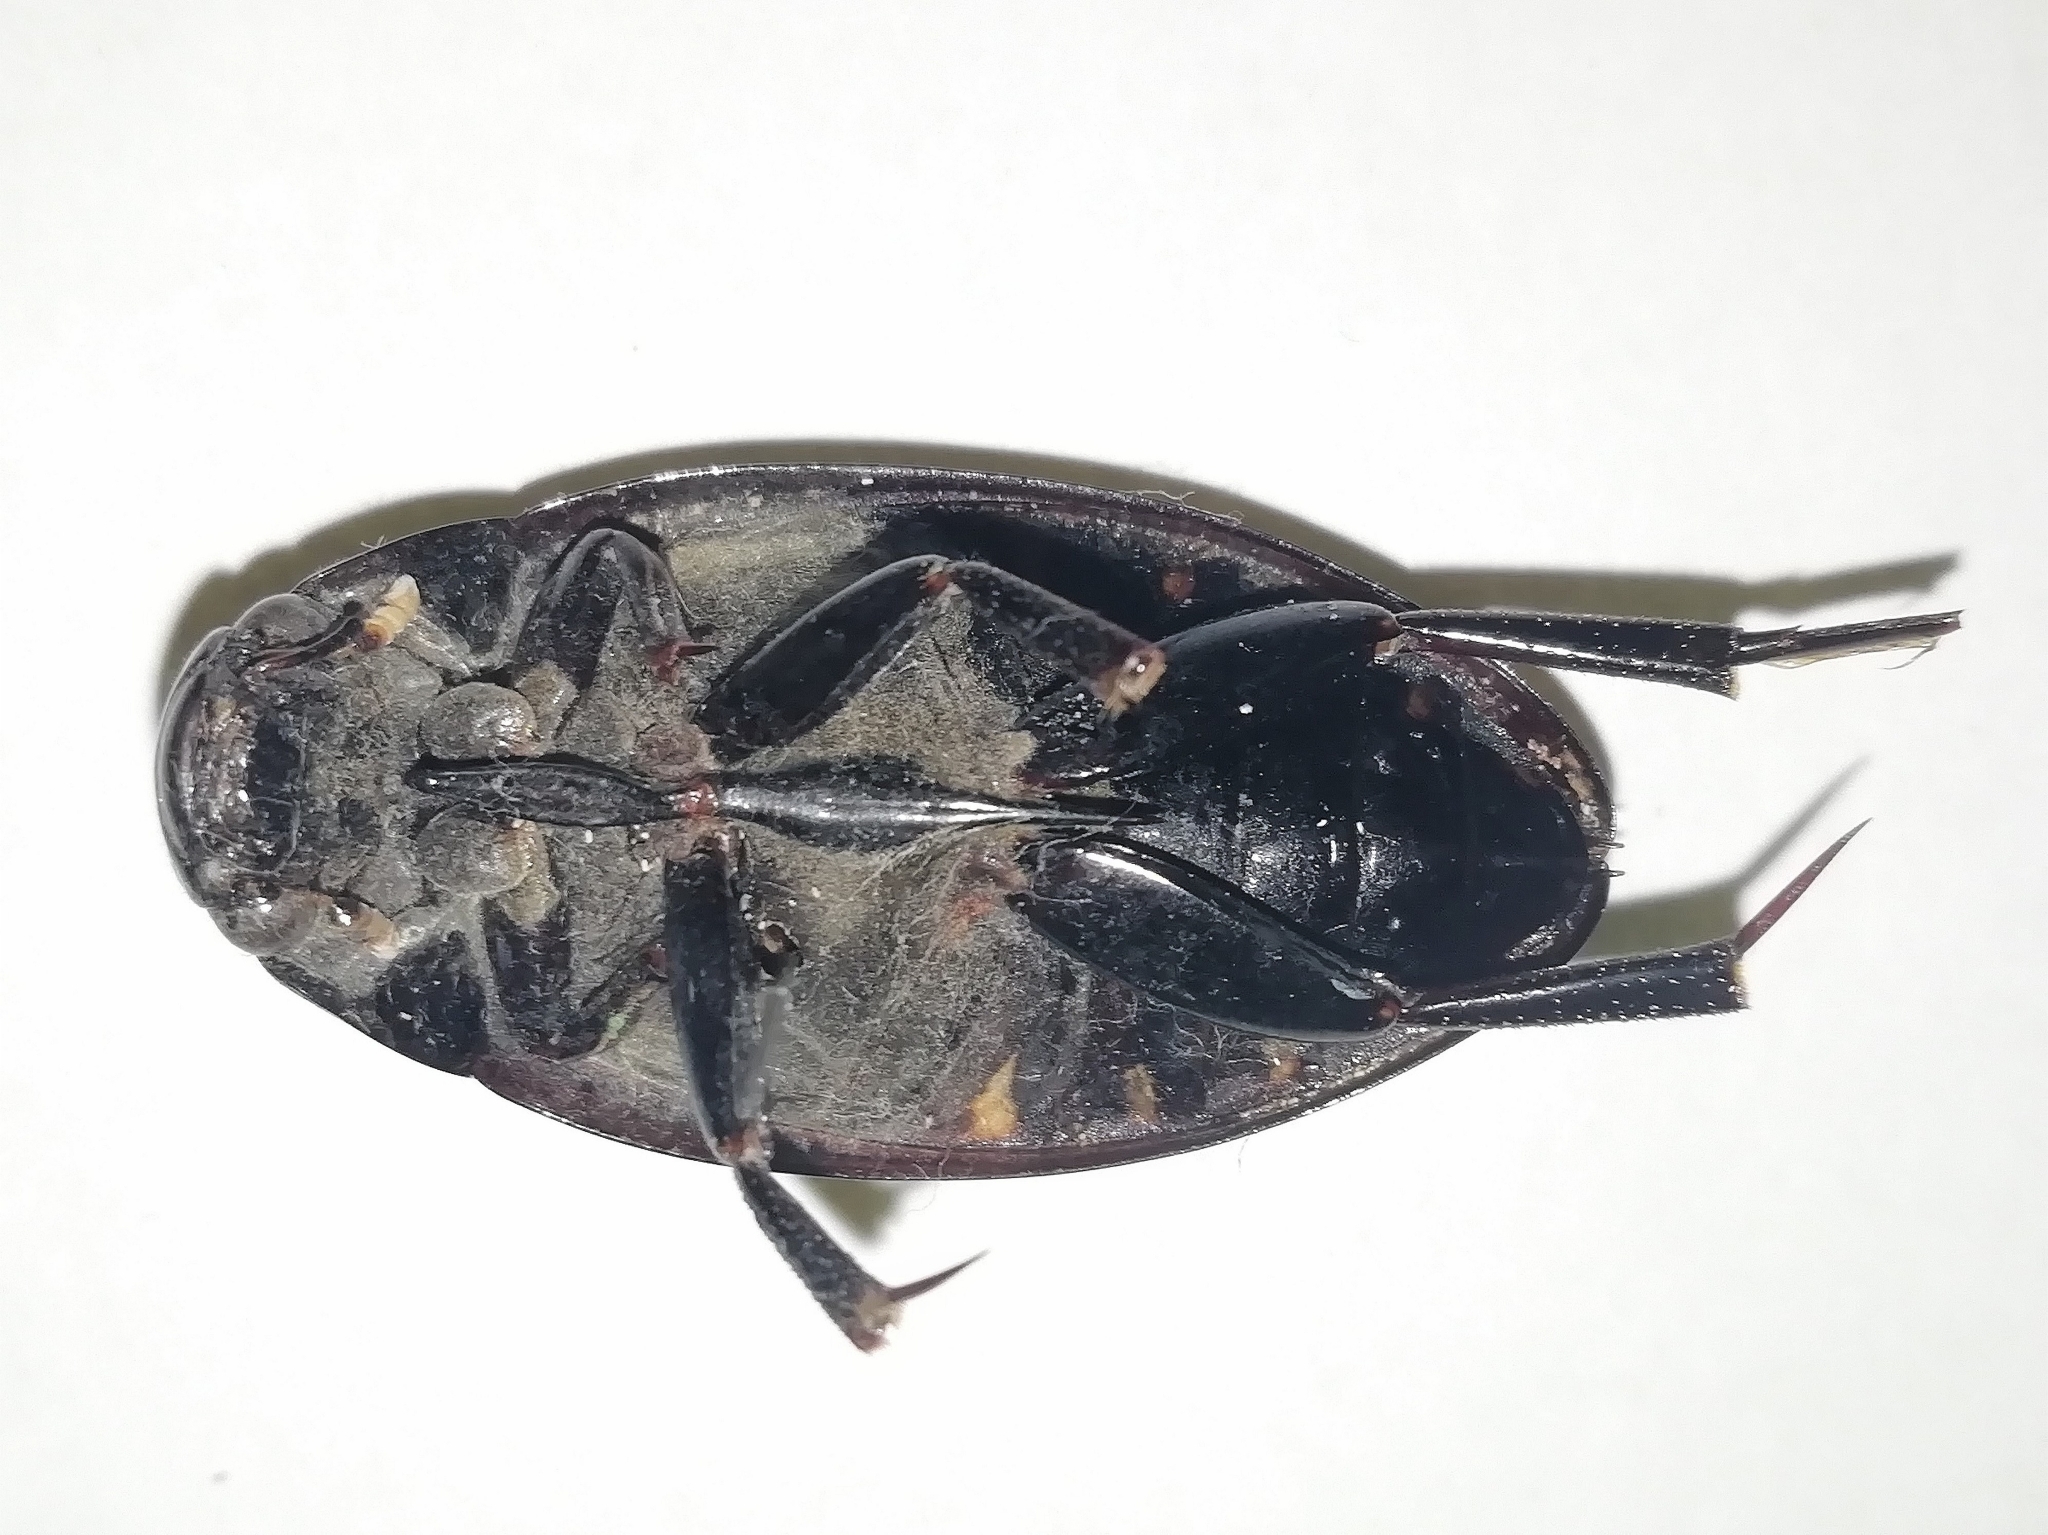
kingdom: Animalia
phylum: Arthropoda
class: Insecta
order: Coleoptera
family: Hydrophilidae
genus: Hydrophilus
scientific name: Hydrophilus aterrimus
